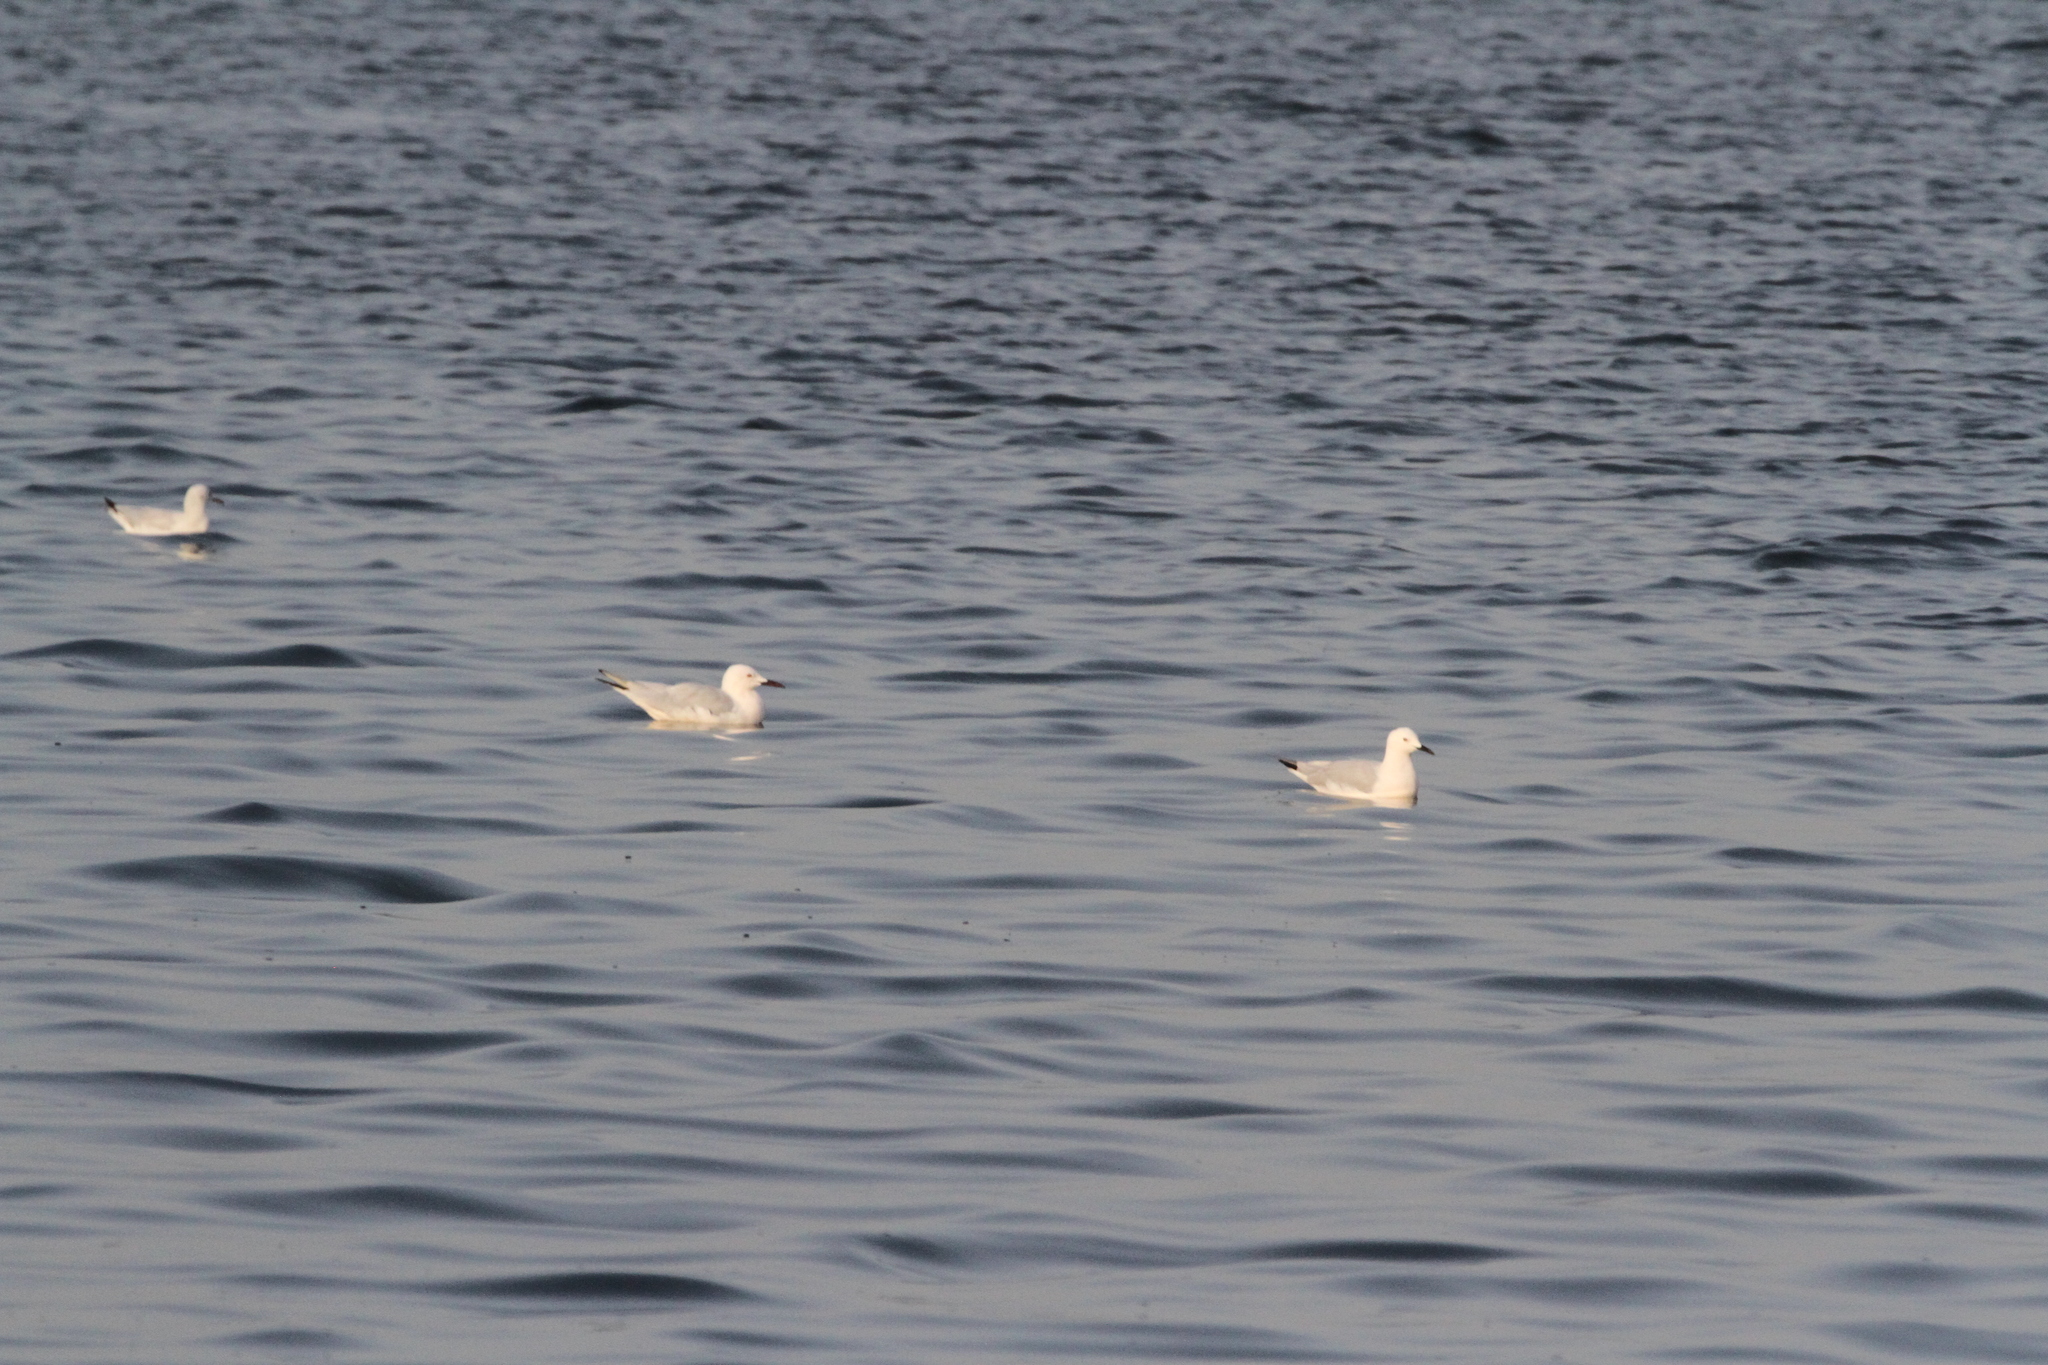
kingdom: Animalia
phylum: Chordata
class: Aves
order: Charadriiformes
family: Laridae
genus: Chroicocephalus
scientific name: Chroicocephalus genei
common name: Slender-billed gull
